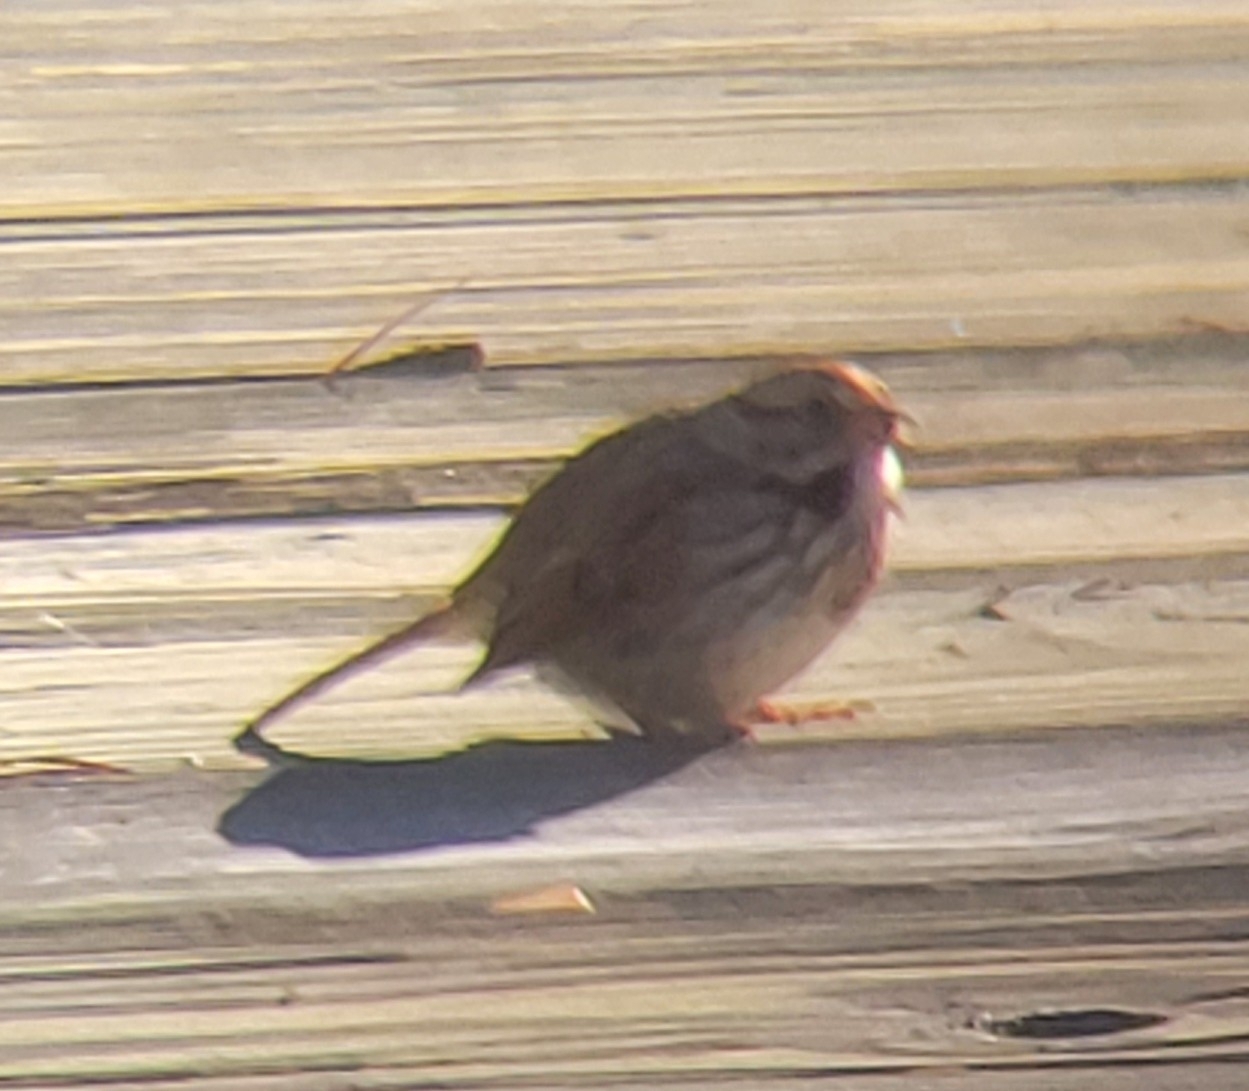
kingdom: Animalia
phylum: Chordata
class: Aves
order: Passeriformes
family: Passerellidae
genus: Melospiza
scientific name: Melospiza melodia
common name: Song sparrow
